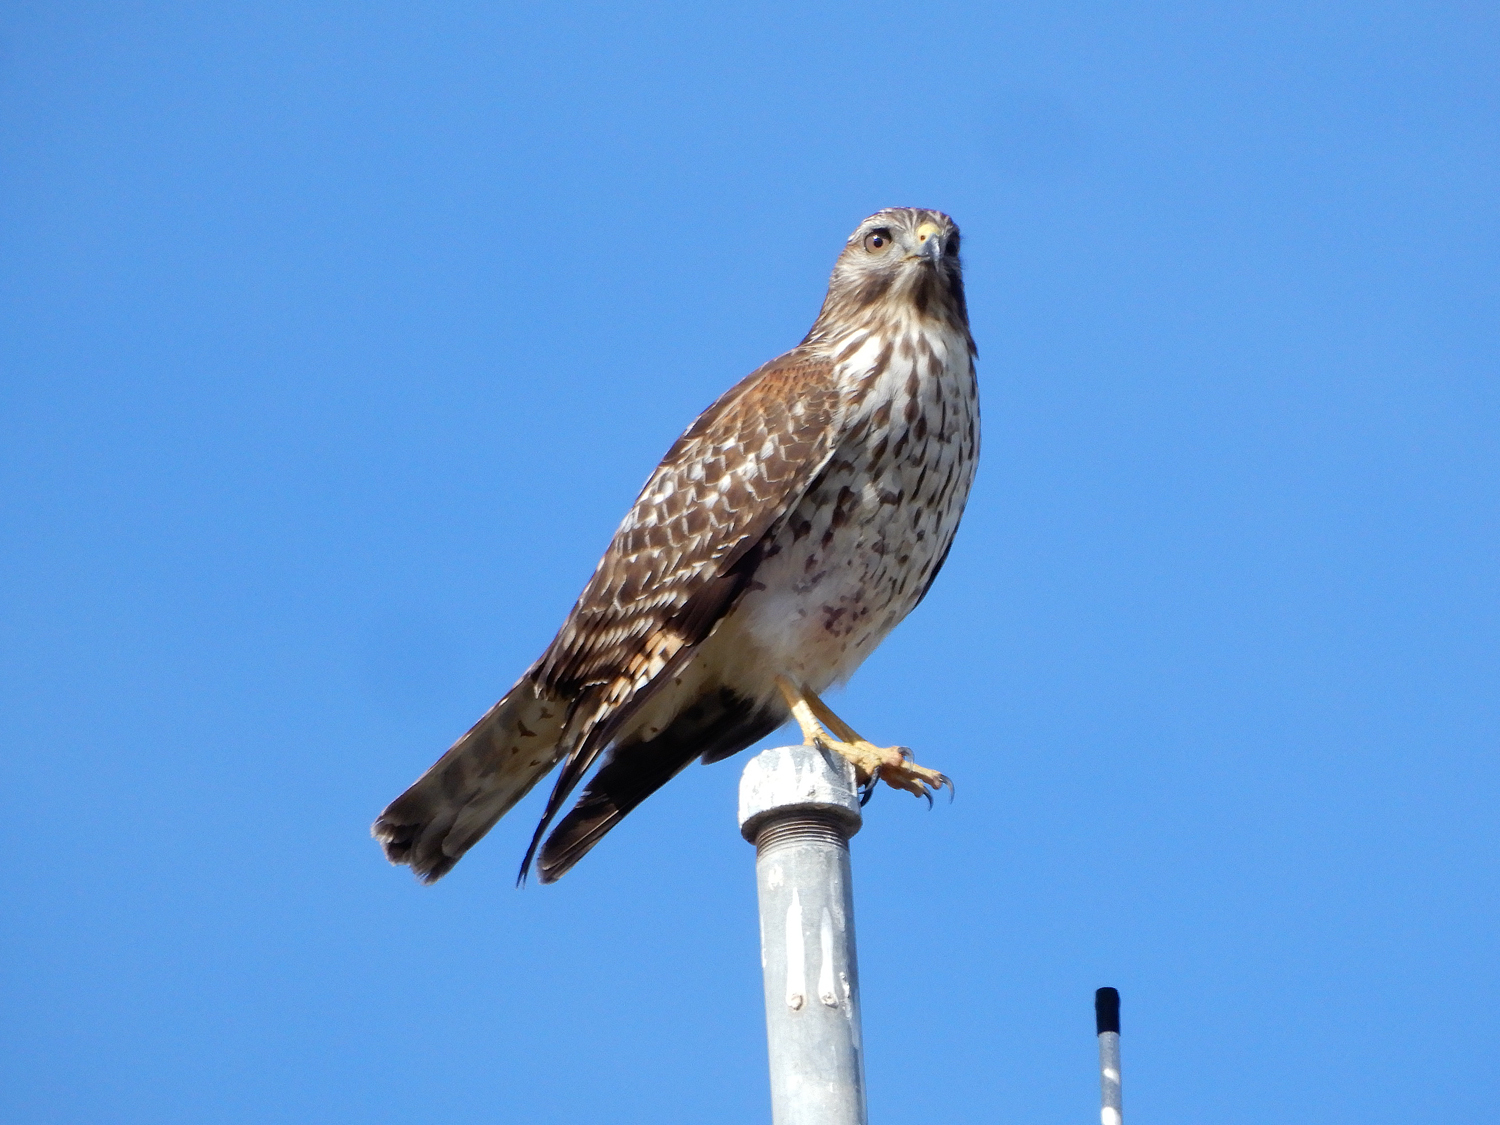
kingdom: Animalia
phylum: Chordata
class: Aves
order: Accipitriformes
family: Accipitridae
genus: Buteo
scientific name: Buteo lineatus
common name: Red-shouldered hawk
